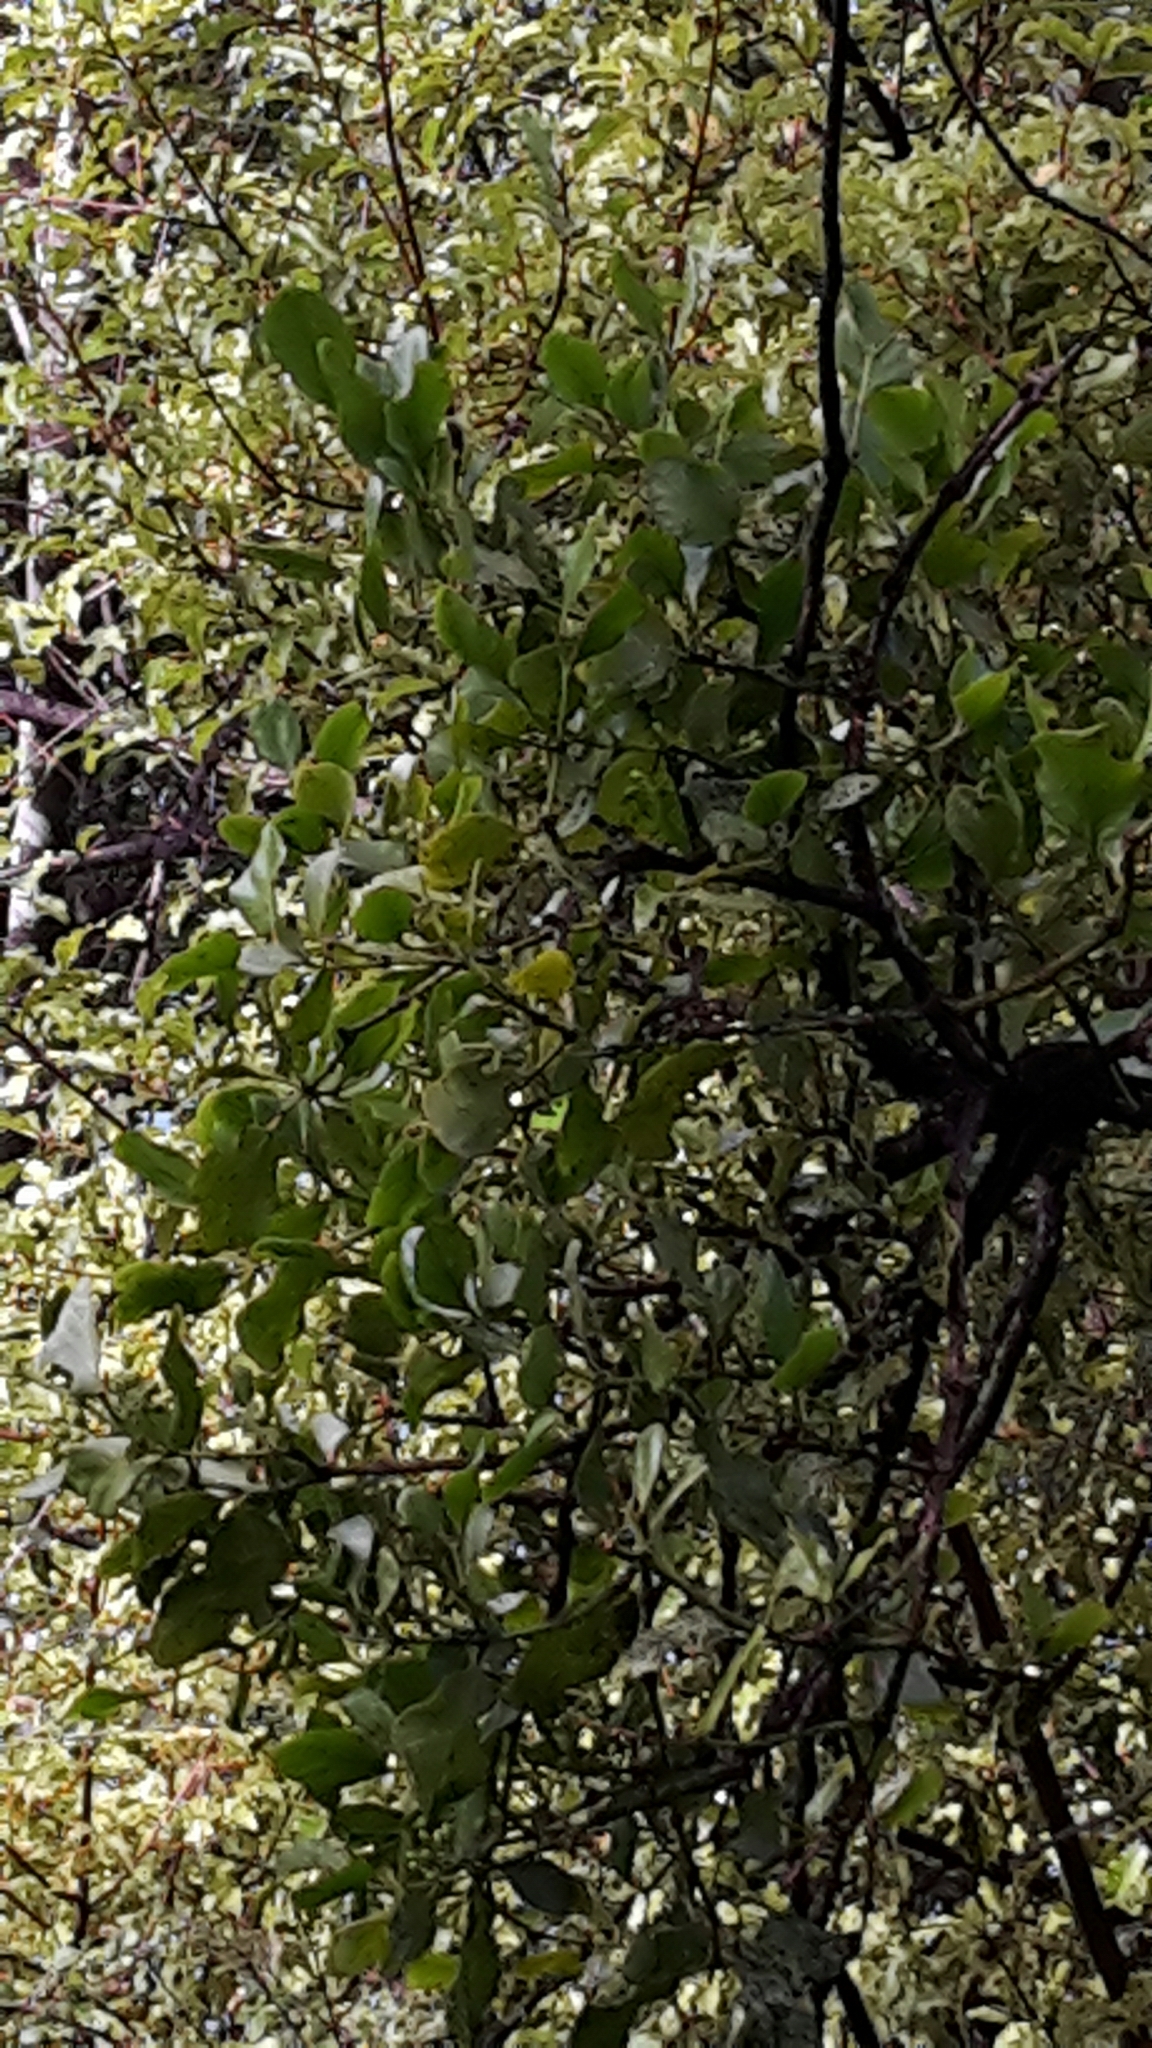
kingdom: Plantae
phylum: Tracheophyta
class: Magnoliopsida
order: Santalales
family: Loranthaceae
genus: Ileostylus
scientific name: Ileostylus micranthus
